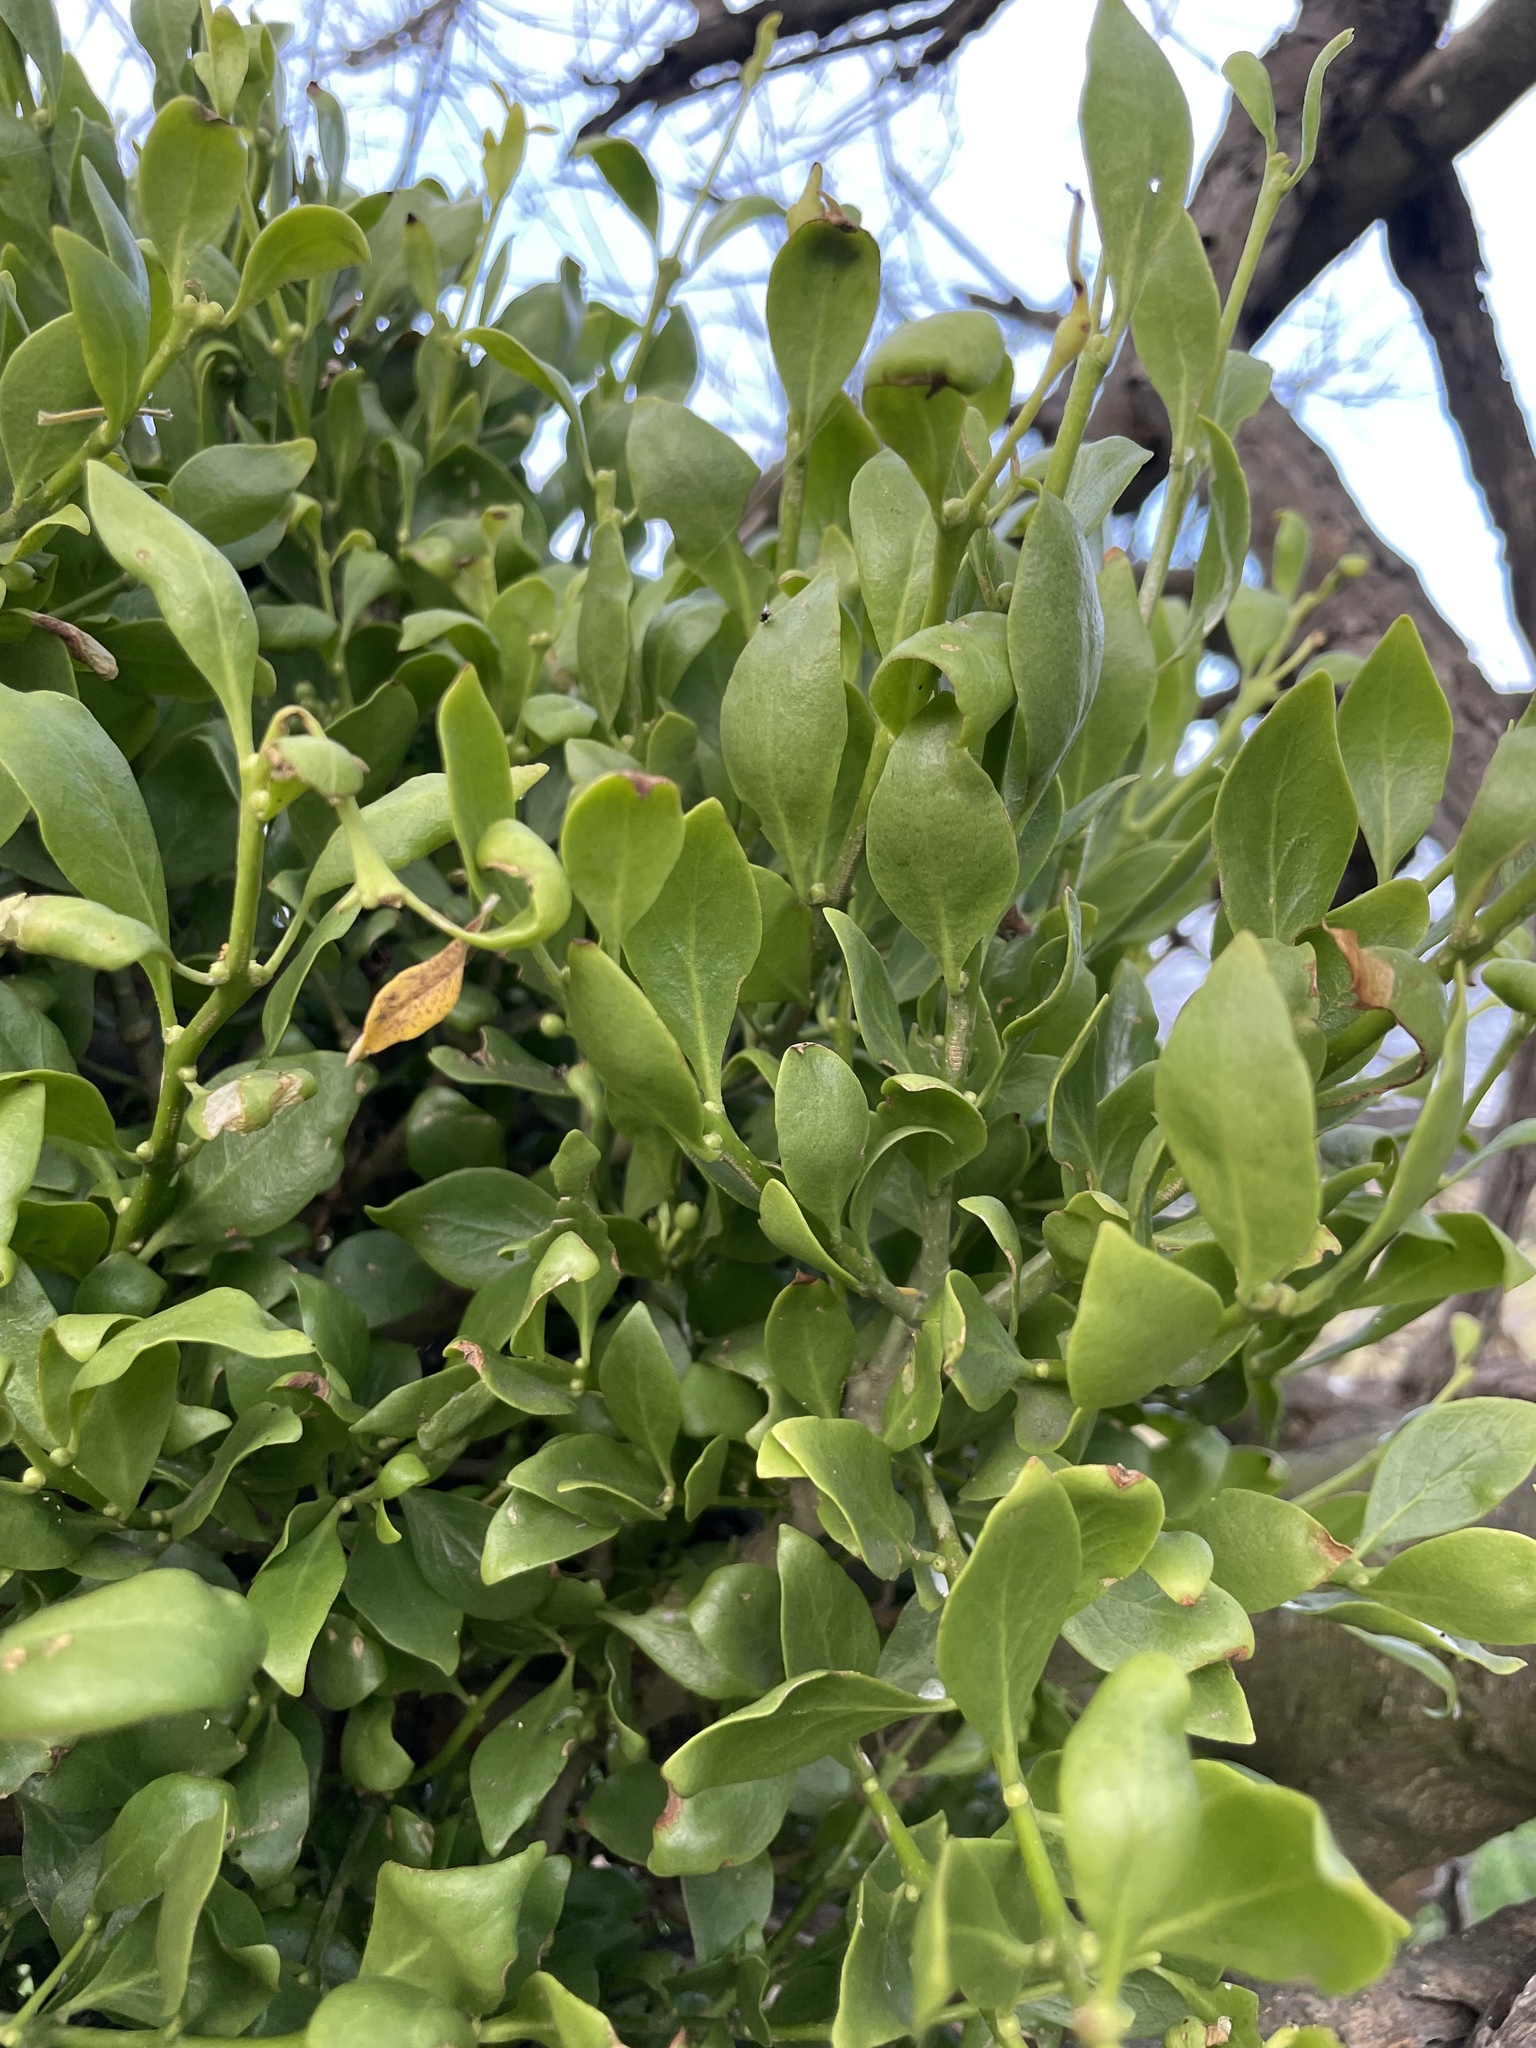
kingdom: Plantae
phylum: Tracheophyta
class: Magnoliopsida
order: Santalales
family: Loranthaceae
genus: Tupeia
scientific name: Tupeia antarctica
